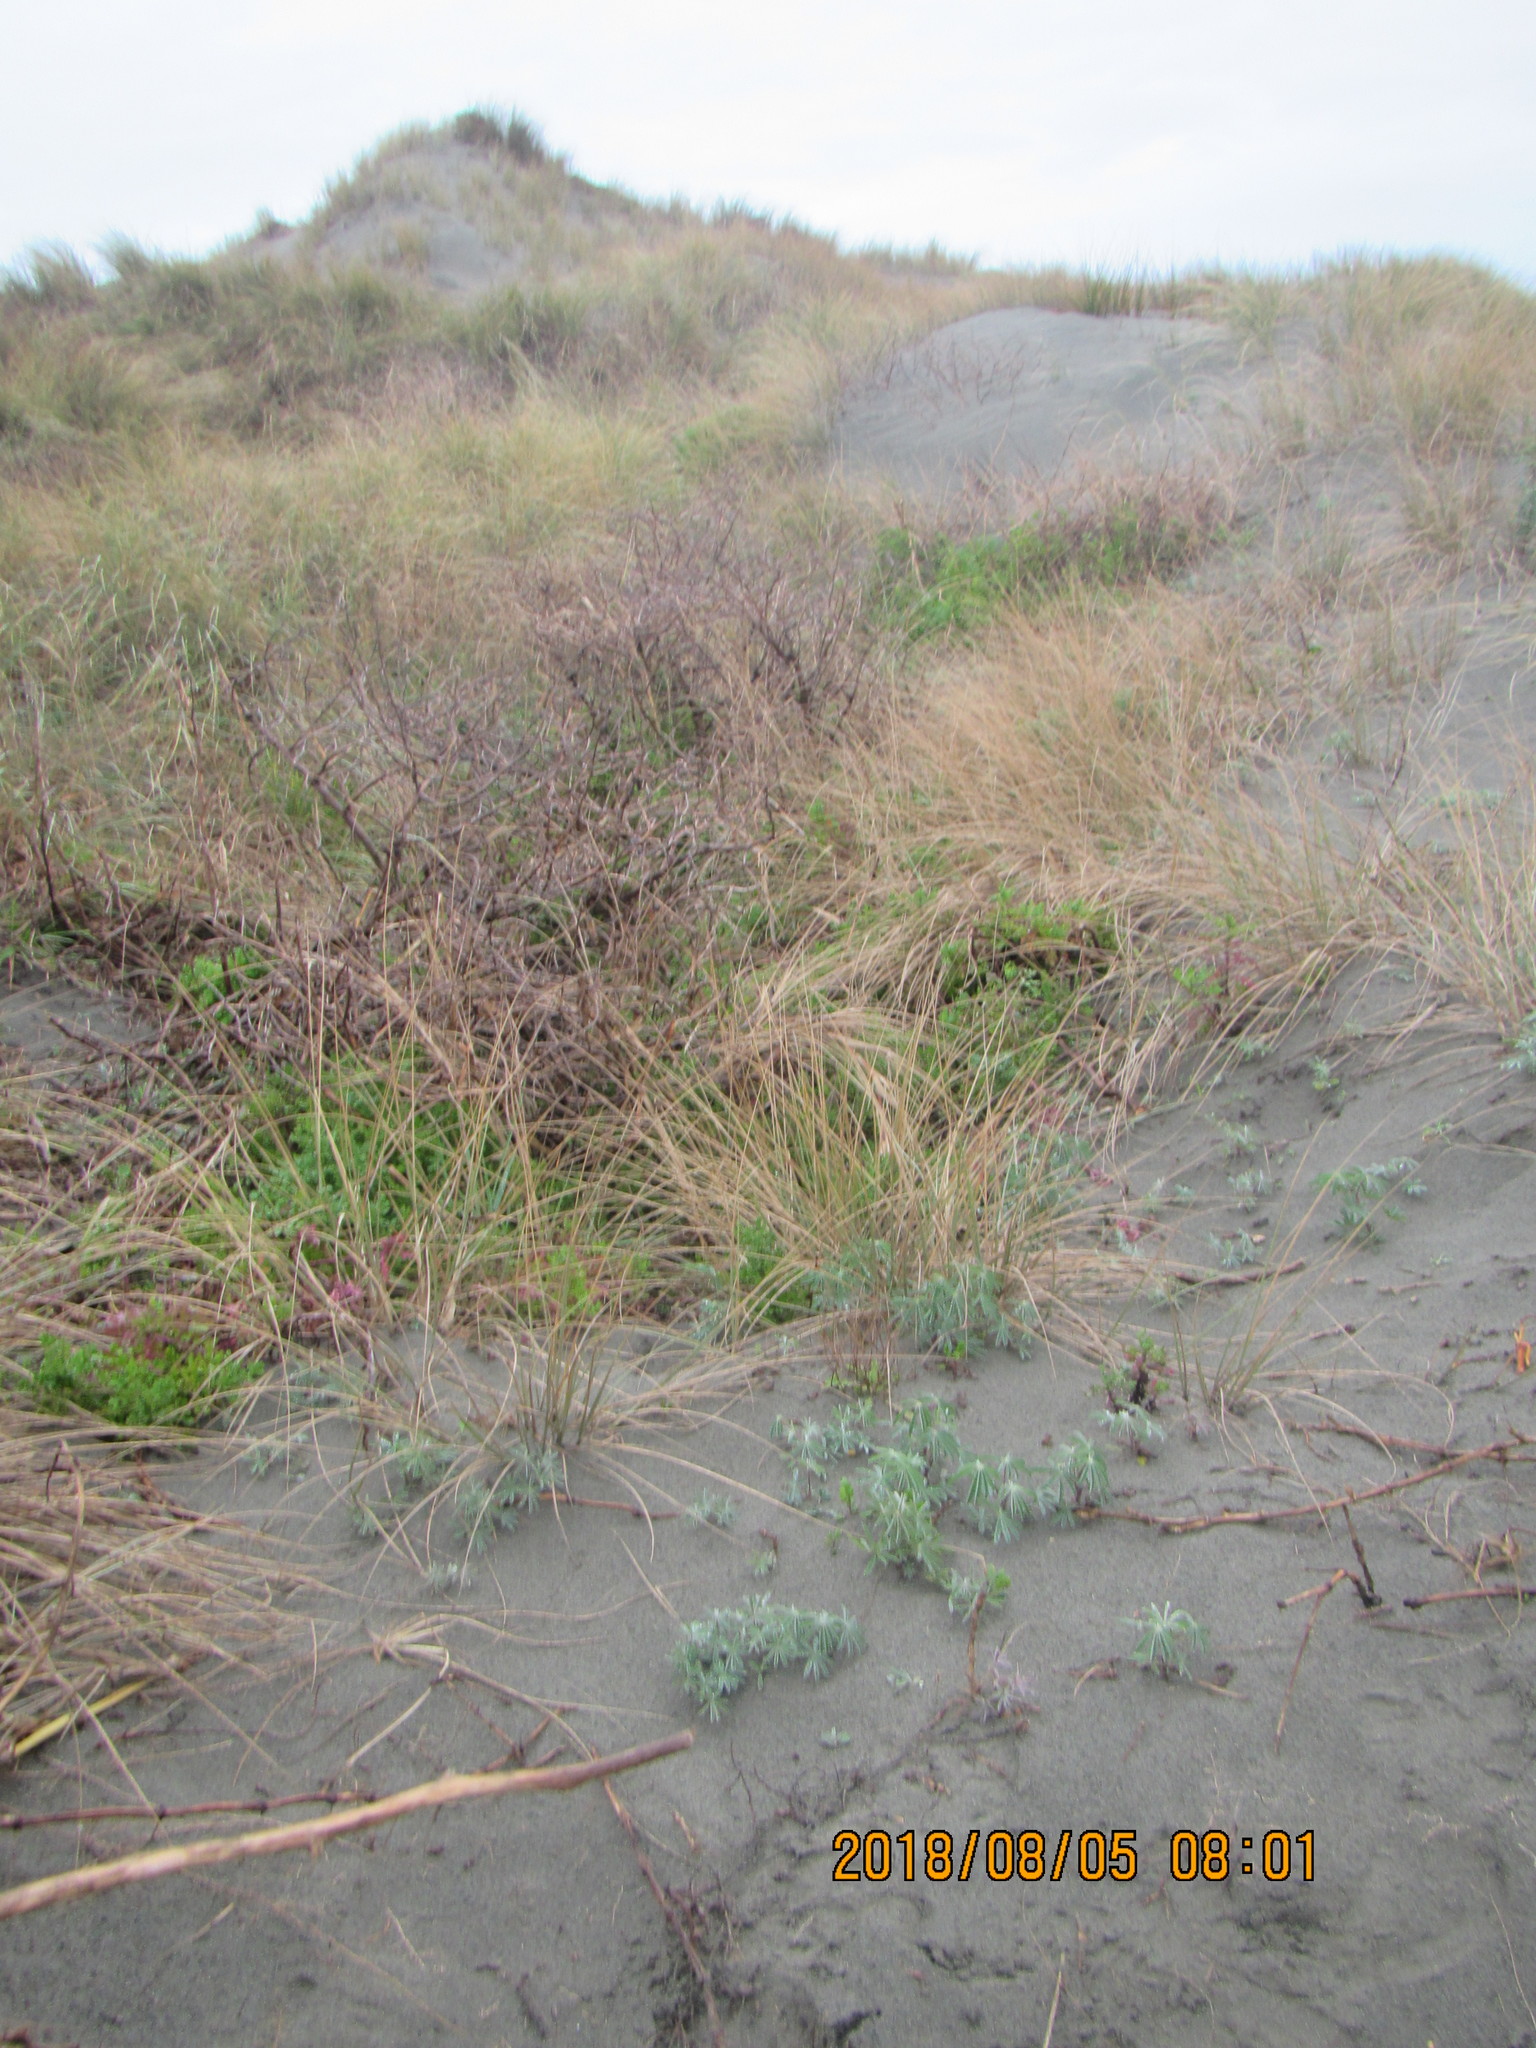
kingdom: Plantae
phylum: Tracheophyta
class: Magnoliopsida
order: Fabales
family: Fabaceae
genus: Lupinus
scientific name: Lupinus arboreus
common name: Yellow bush lupine
